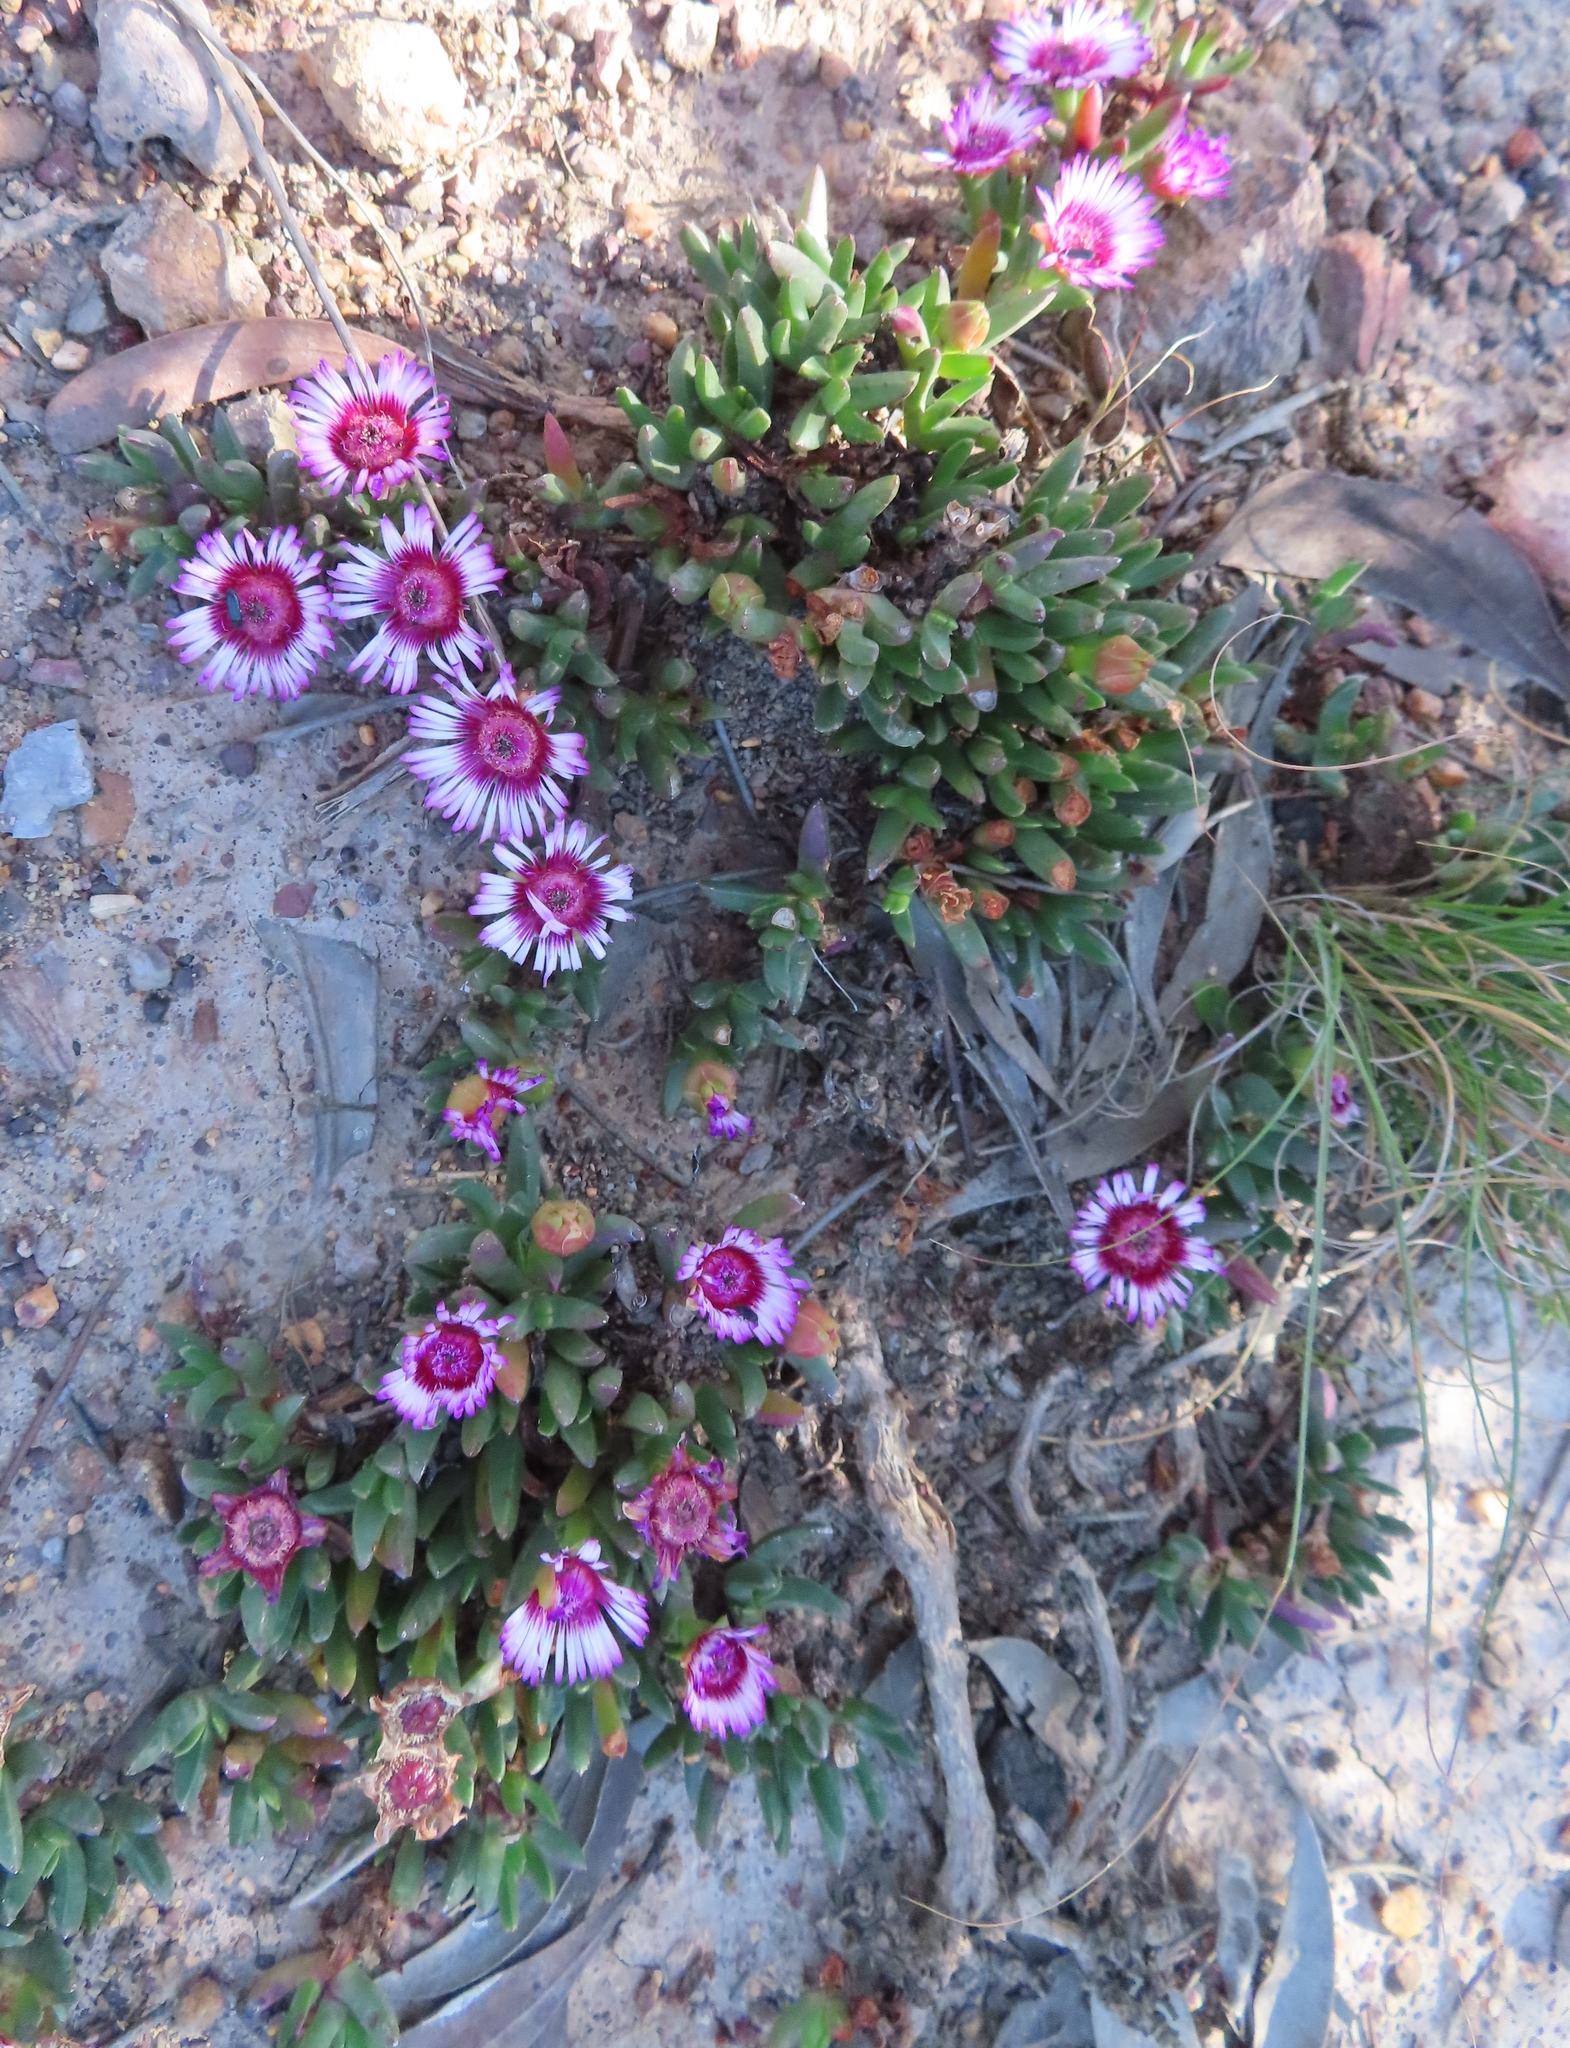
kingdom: Plantae
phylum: Tracheophyta
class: Magnoliopsida
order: Caryophyllales
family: Aizoaceae
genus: Acrodon
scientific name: Acrodon parvifolius
